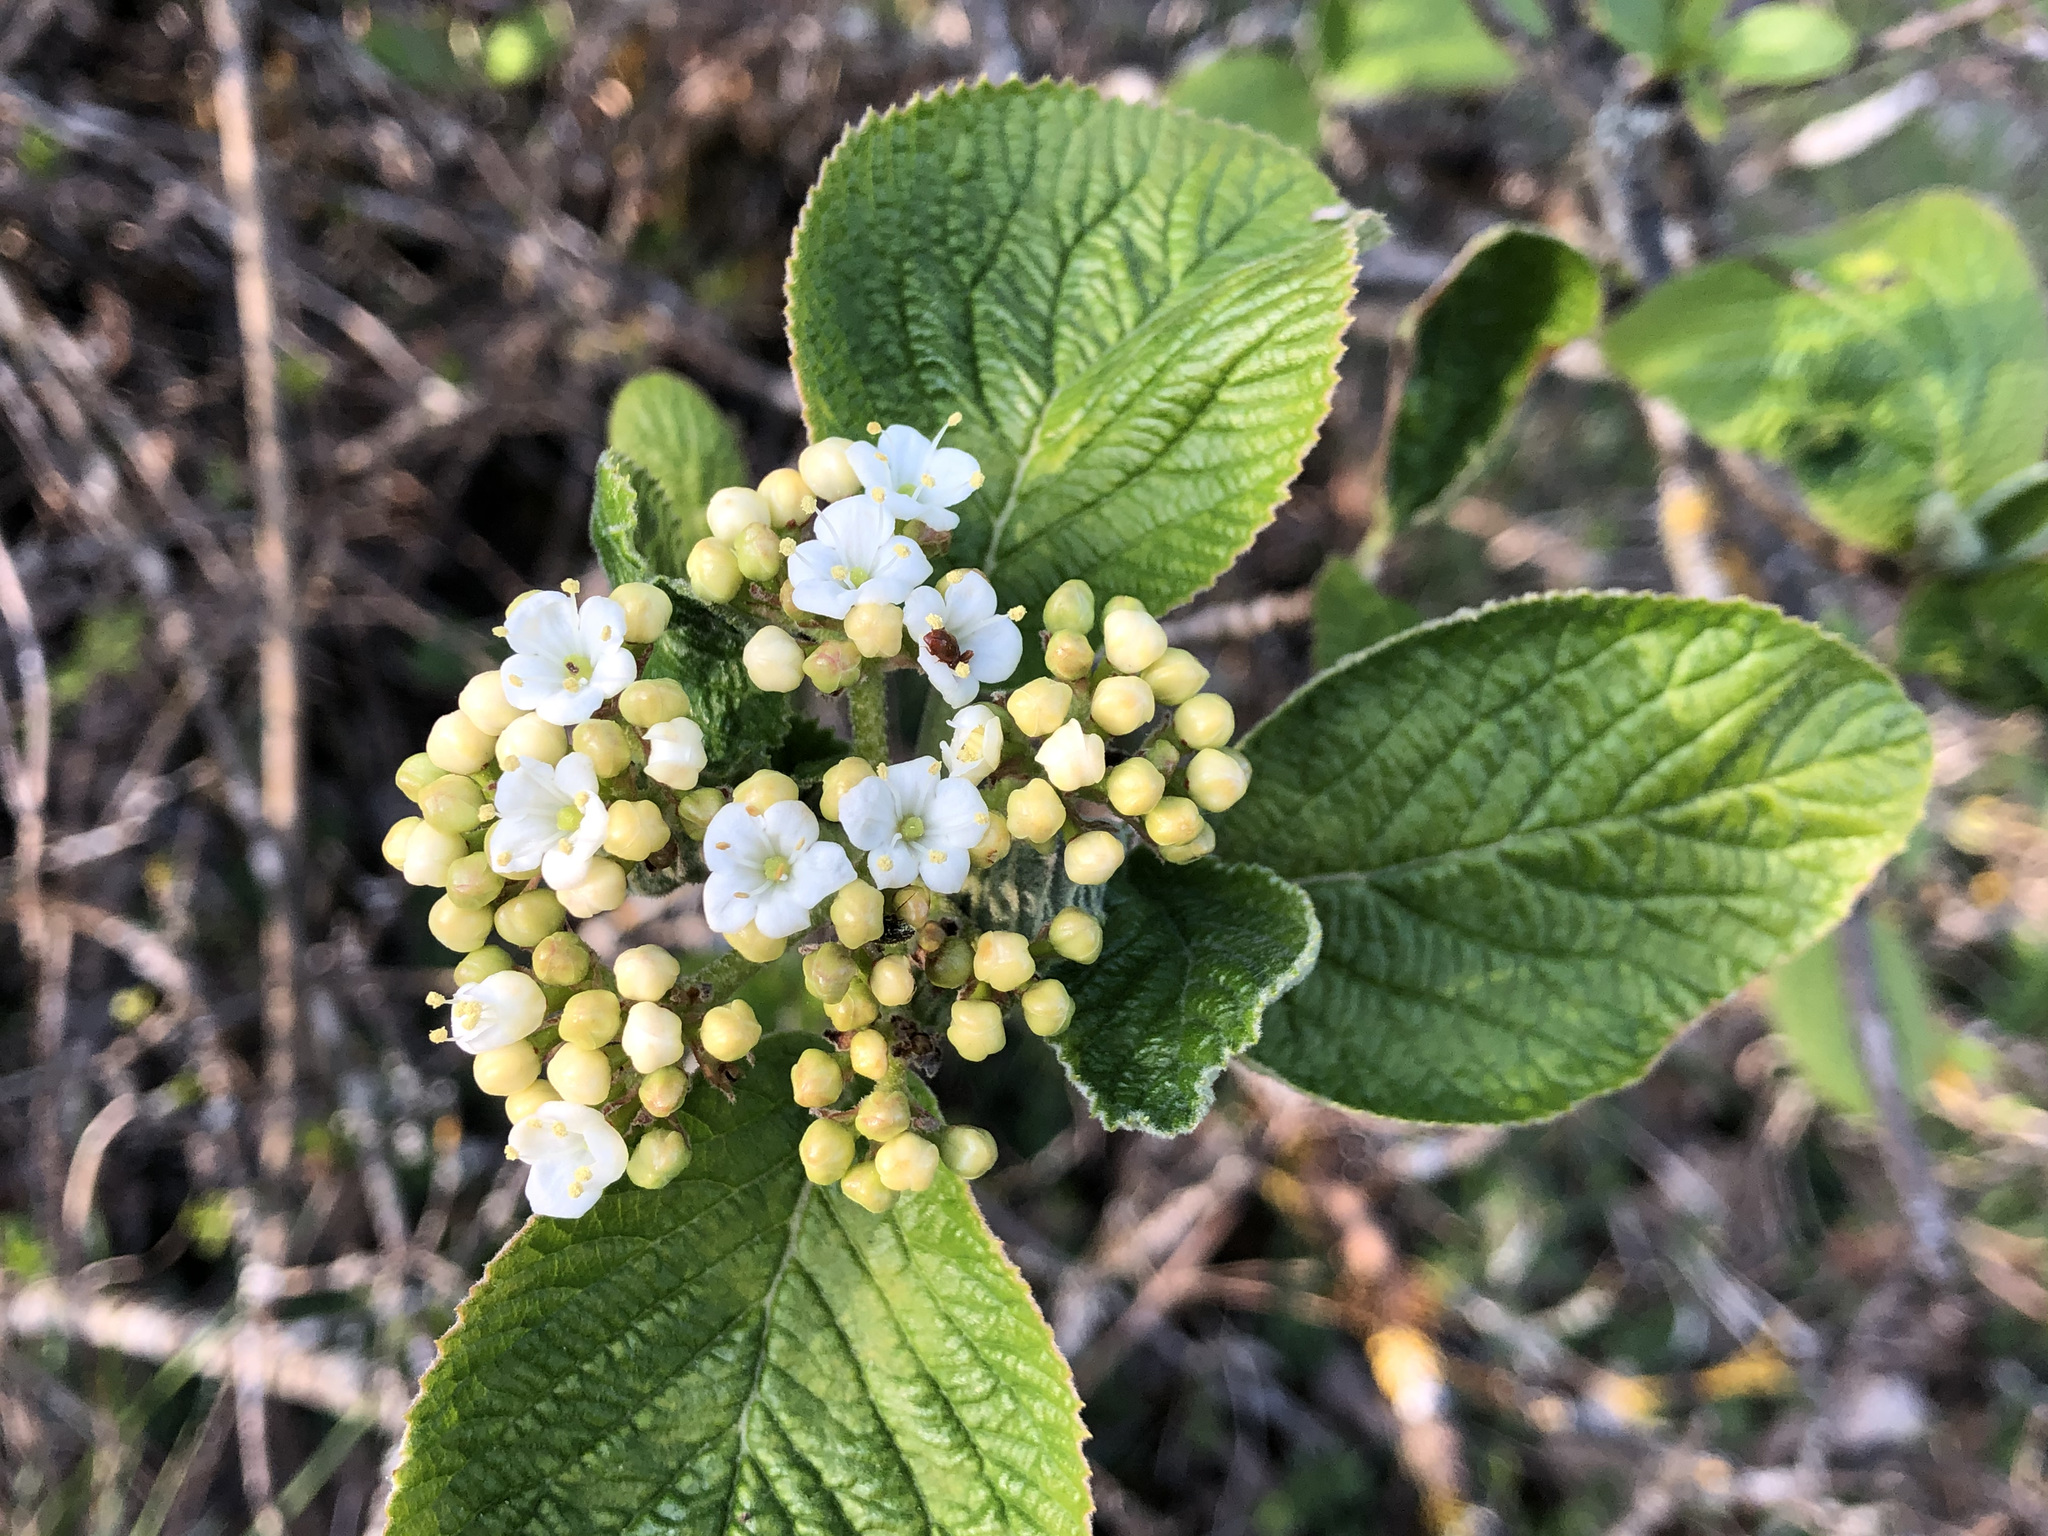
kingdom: Plantae
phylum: Tracheophyta
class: Magnoliopsida
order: Dipsacales
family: Viburnaceae
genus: Viburnum
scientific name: Viburnum lantana
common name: Wayfaring tree
